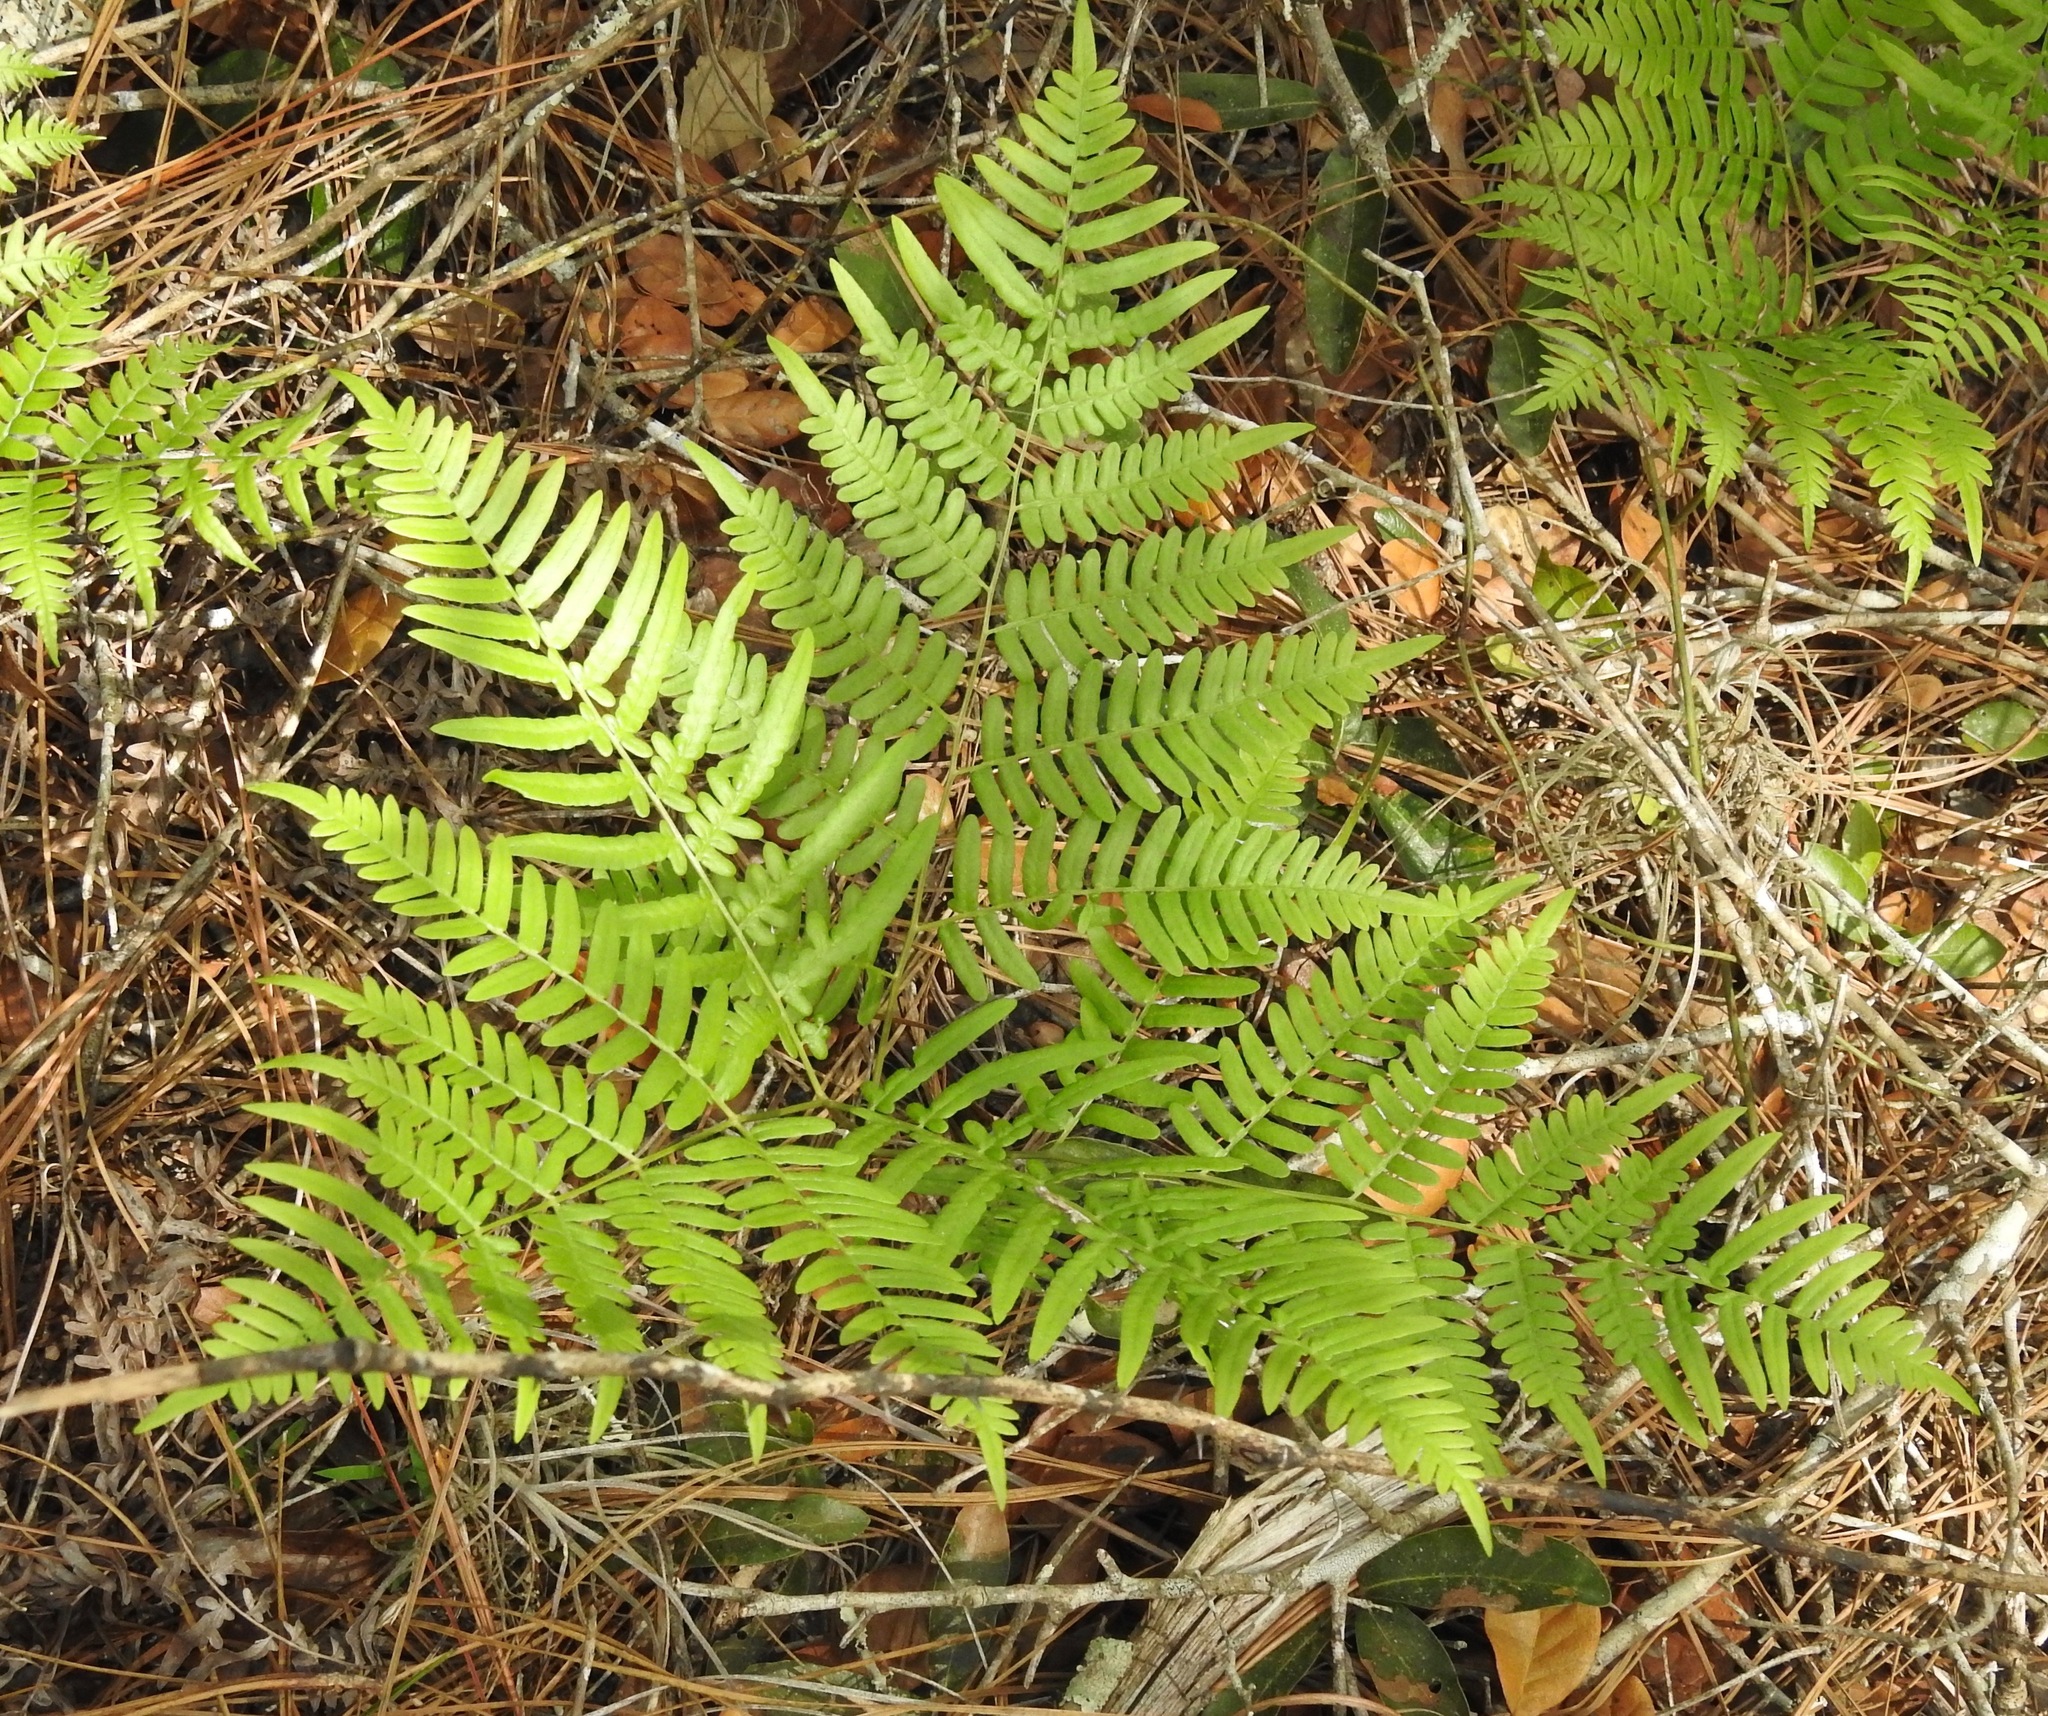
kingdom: Plantae
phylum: Tracheophyta
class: Polypodiopsida
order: Polypodiales
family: Dennstaedtiaceae
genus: Pteridium
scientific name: Pteridium
